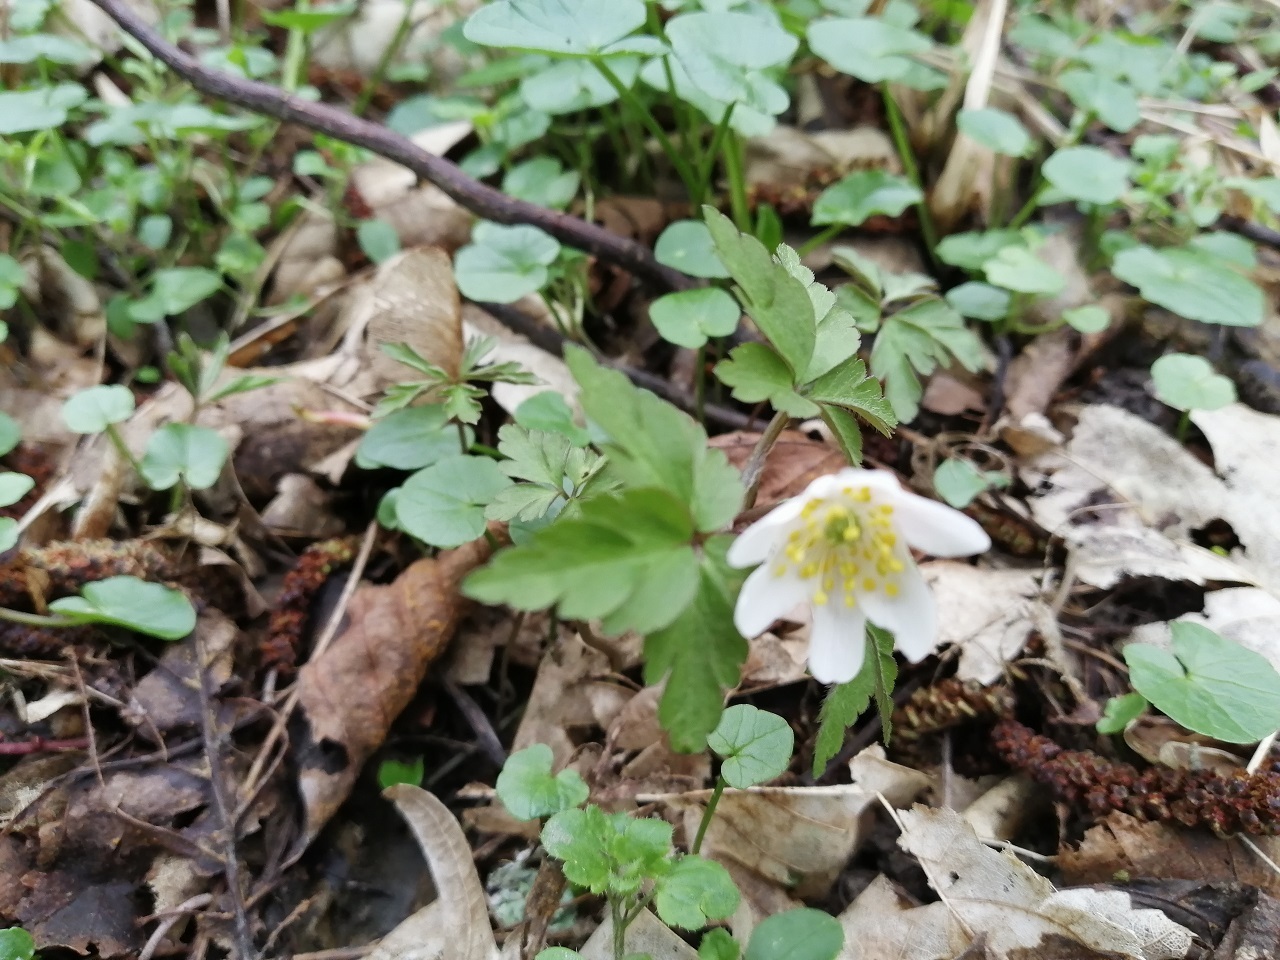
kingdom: Plantae
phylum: Tracheophyta
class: Magnoliopsida
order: Ranunculales
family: Ranunculaceae
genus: Anemone
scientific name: Anemone nemorosa
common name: Wood anemone
